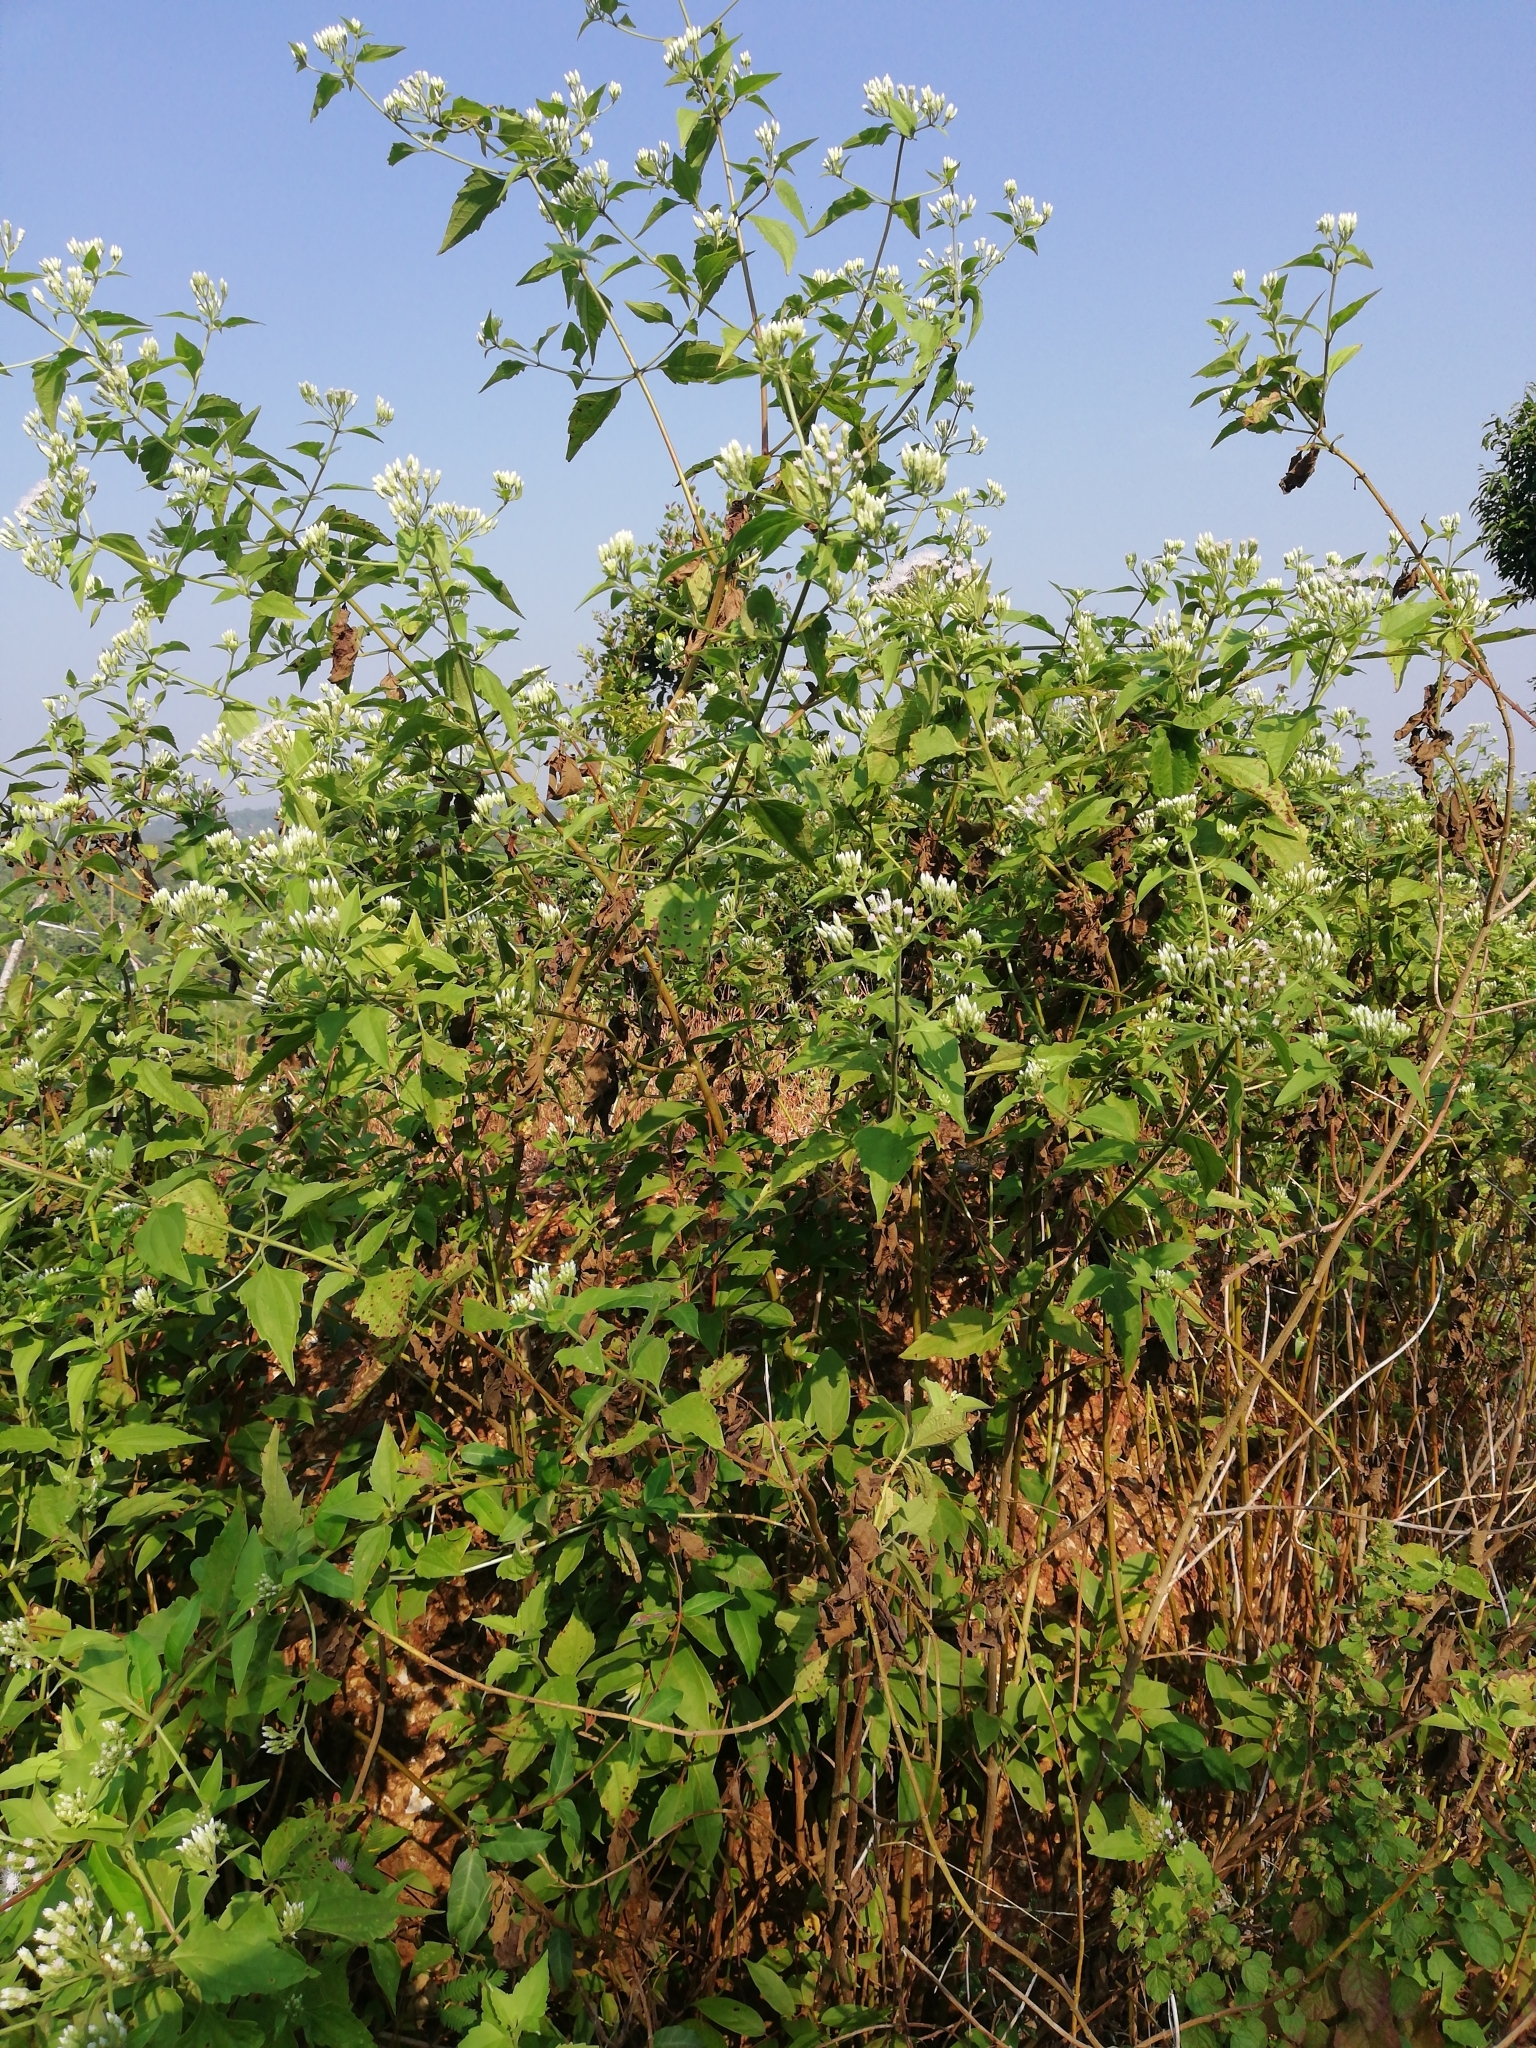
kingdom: Plantae
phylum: Tracheophyta
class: Magnoliopsida
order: Asterales
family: Asteraceae
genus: Chromolaena
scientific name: Chromolaena odorata
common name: Siamweed
